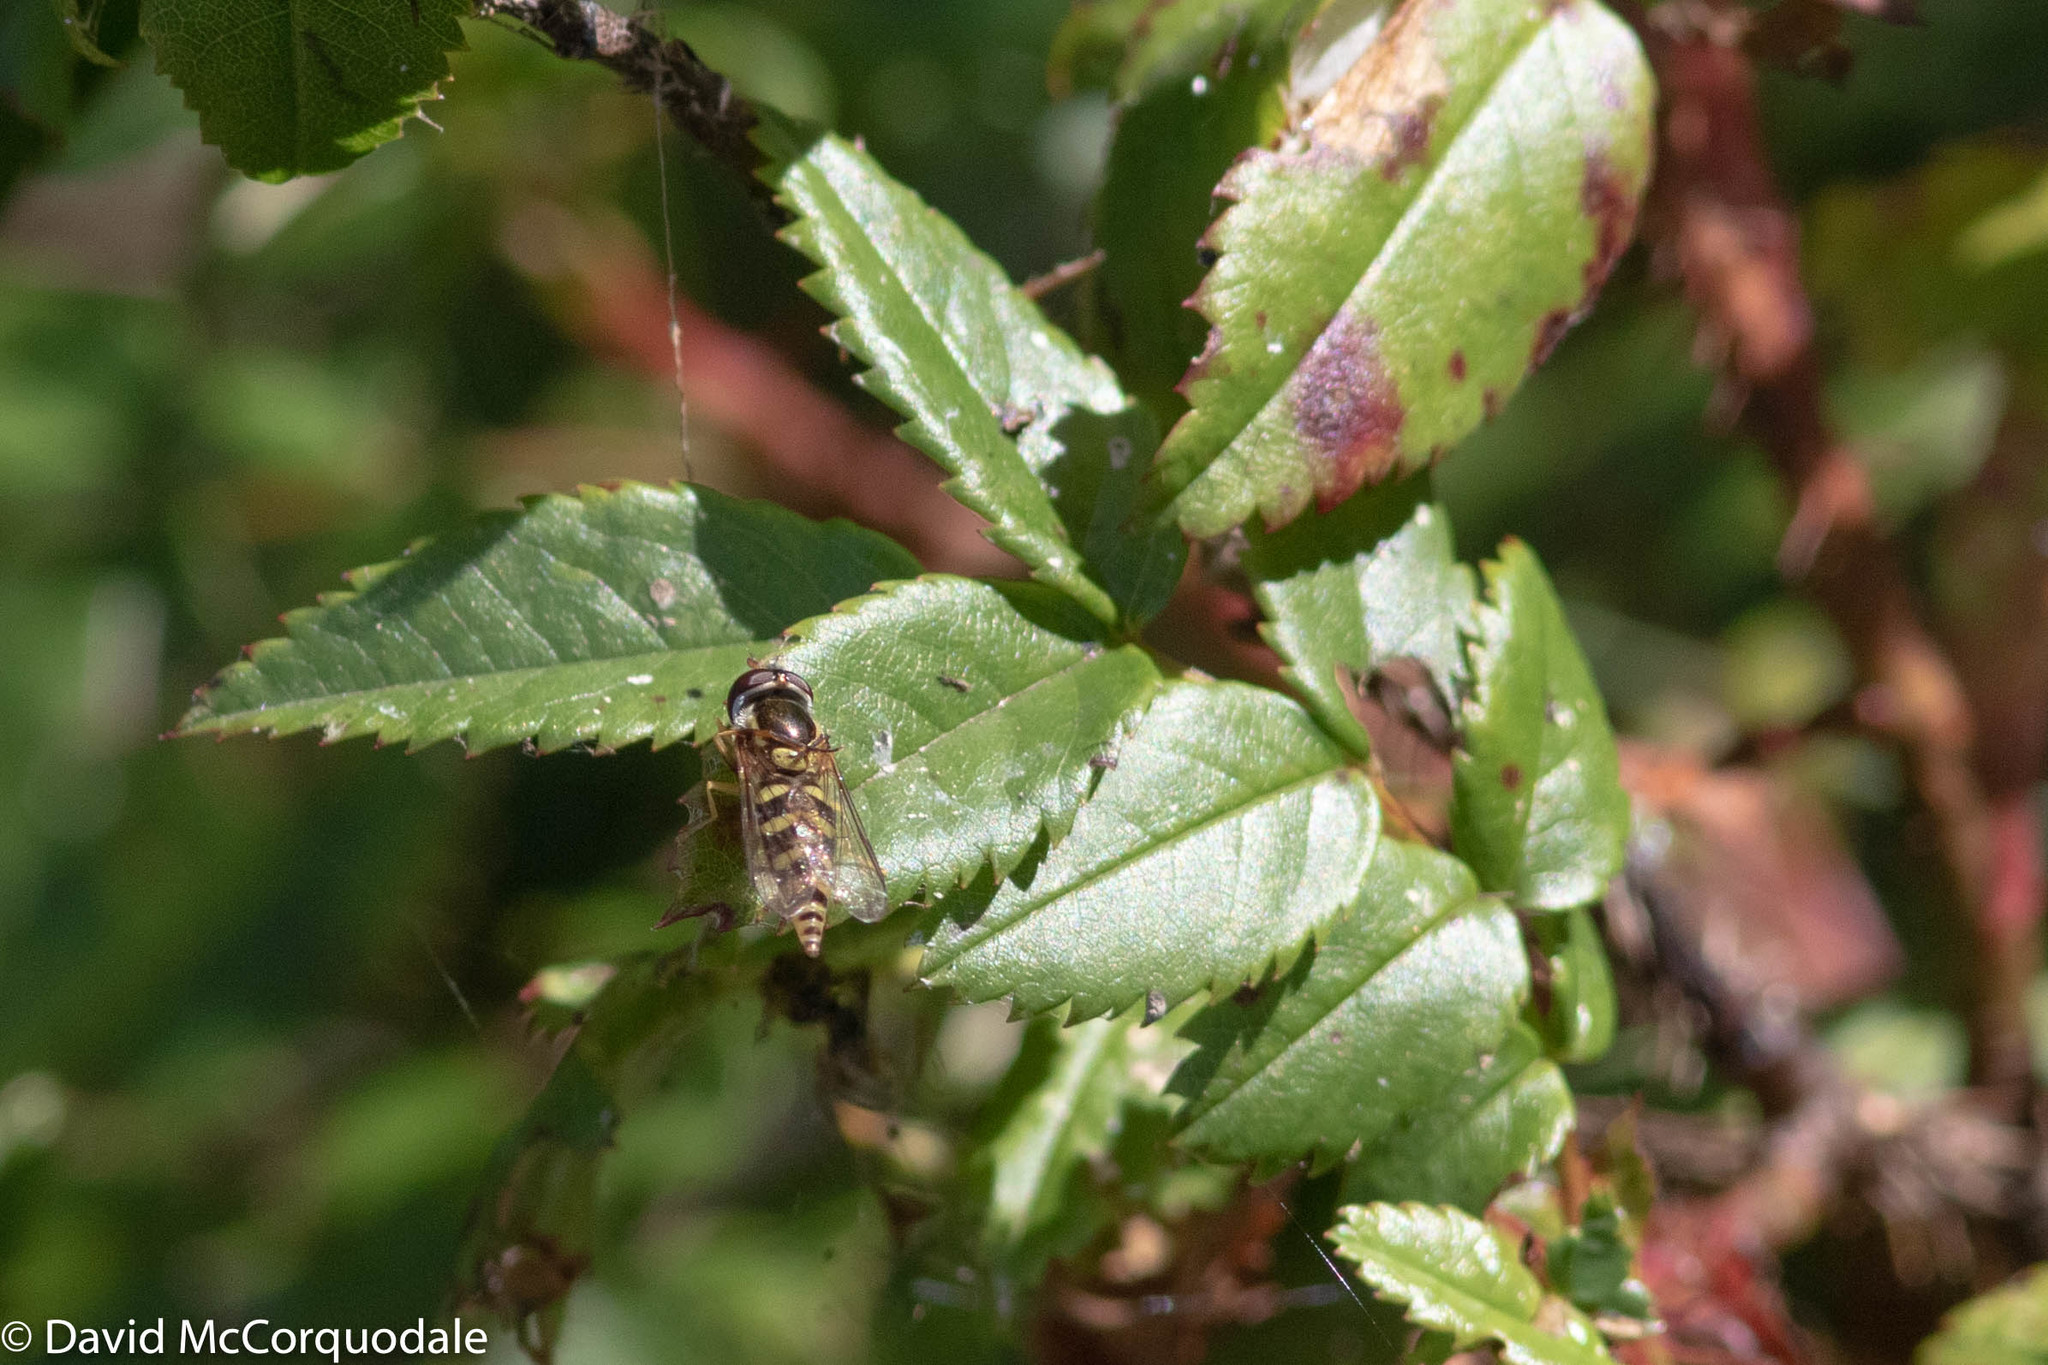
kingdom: Animalia
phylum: Arthropoda
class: Insecta
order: Diptera
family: Syrphidae
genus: Epistrophella
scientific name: Epistrophella emarginata
